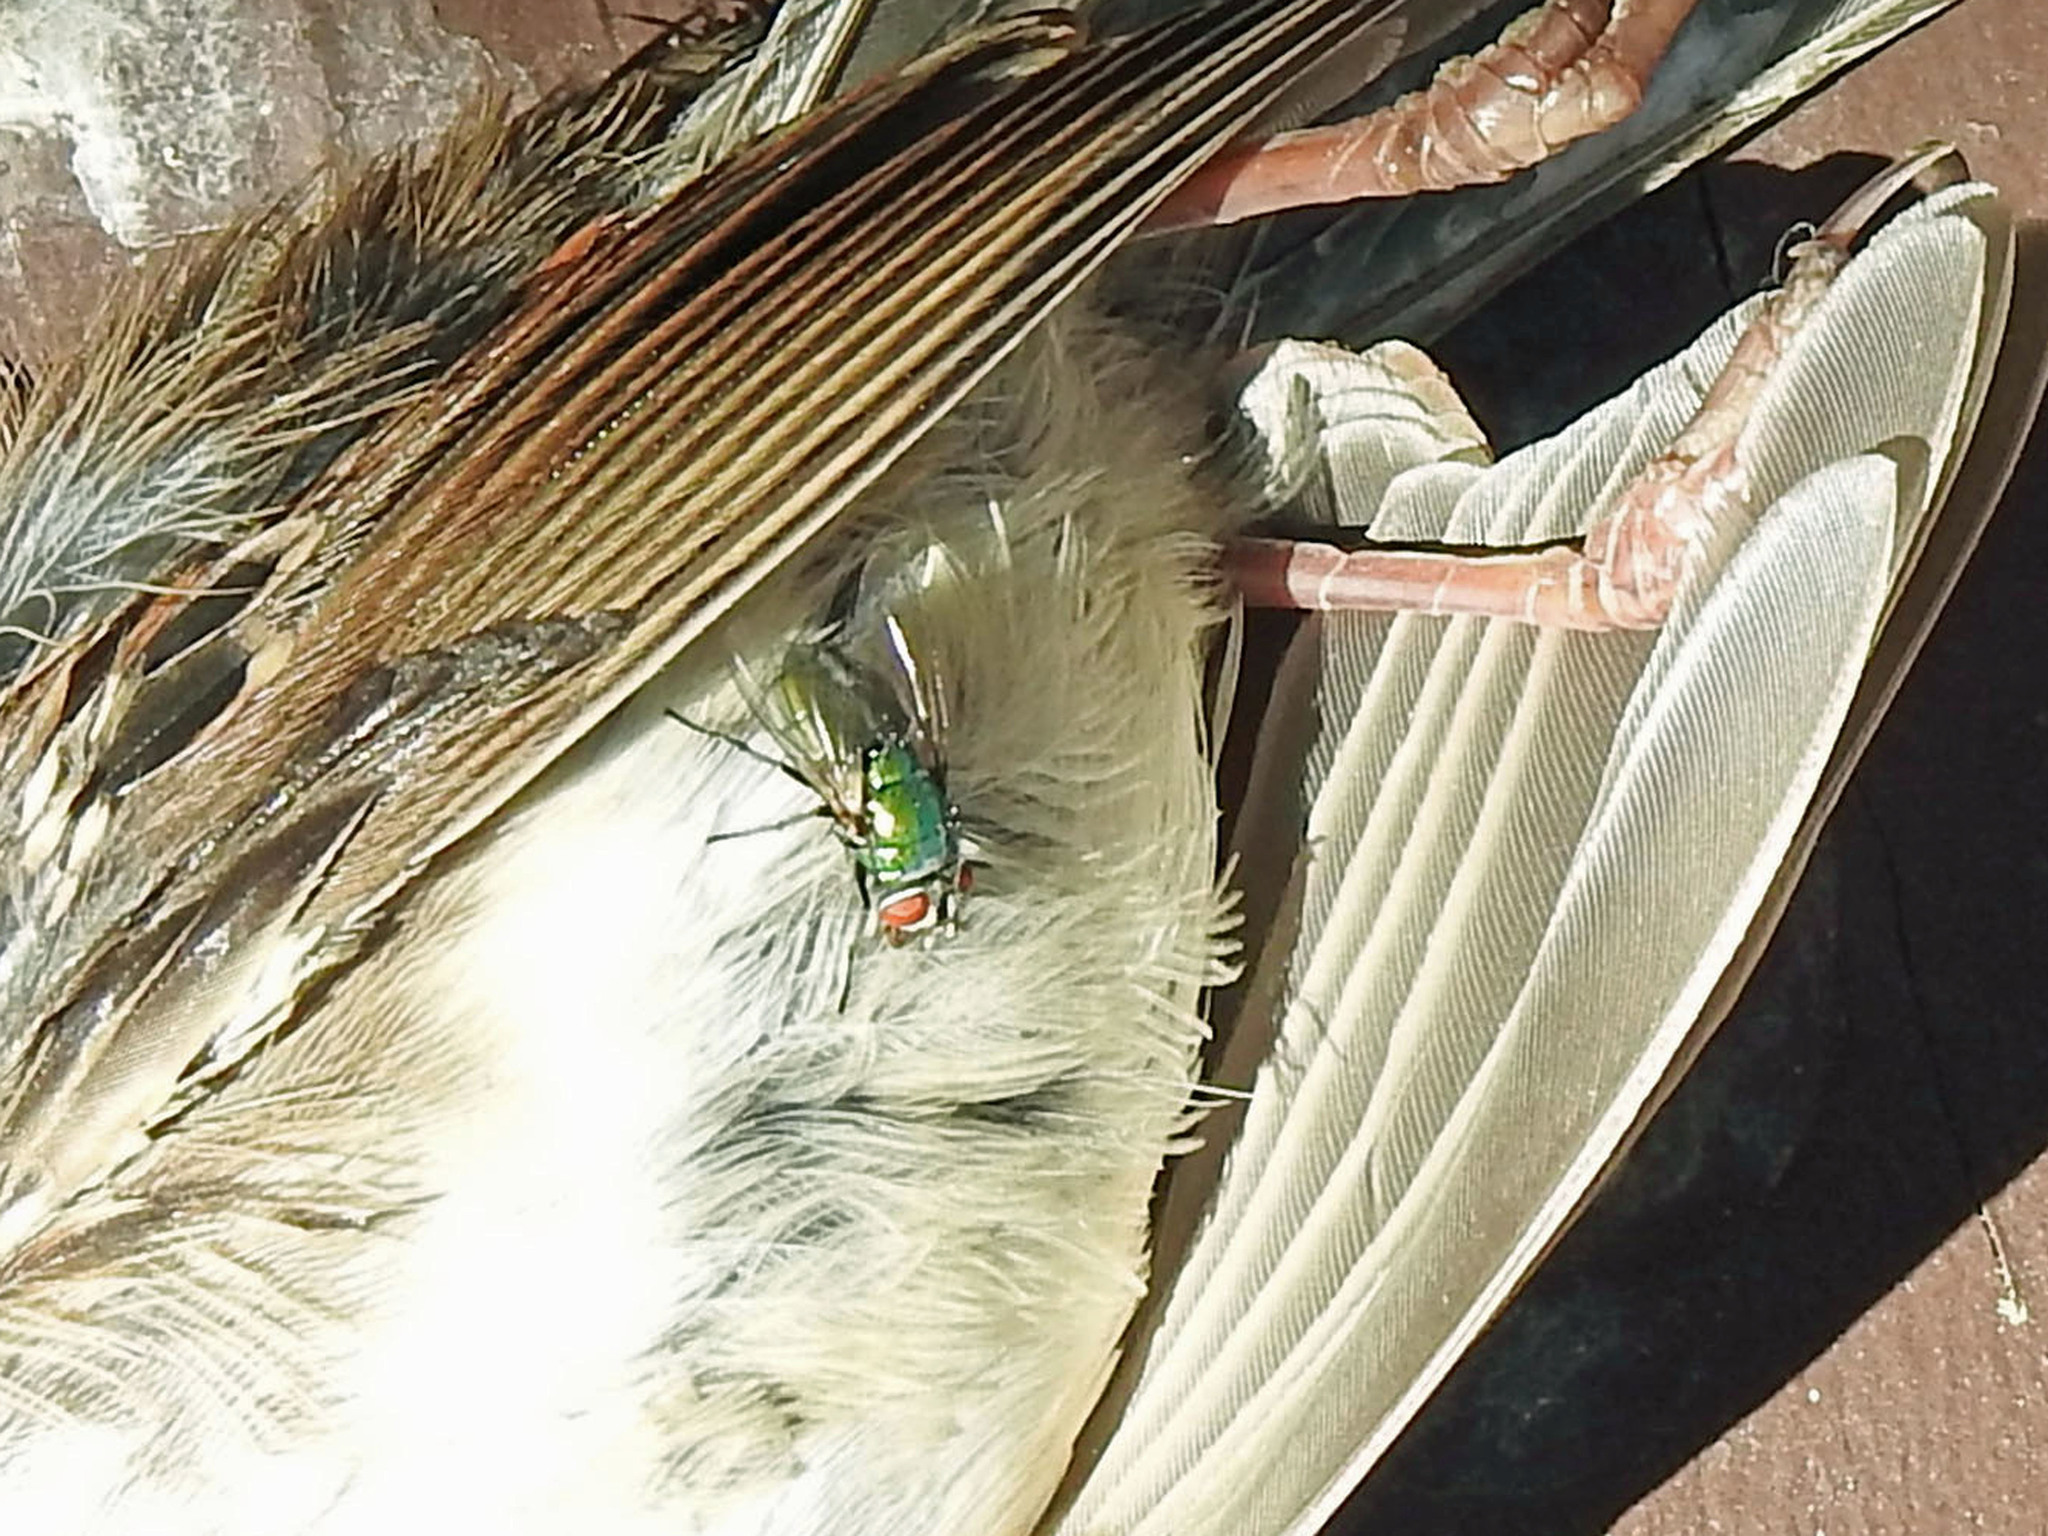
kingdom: Animalia
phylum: Arthropoda
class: Insecta
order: Diptera
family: Calliphoridae
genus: Lucilia
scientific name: Lucilia sericata
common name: Blow fly
